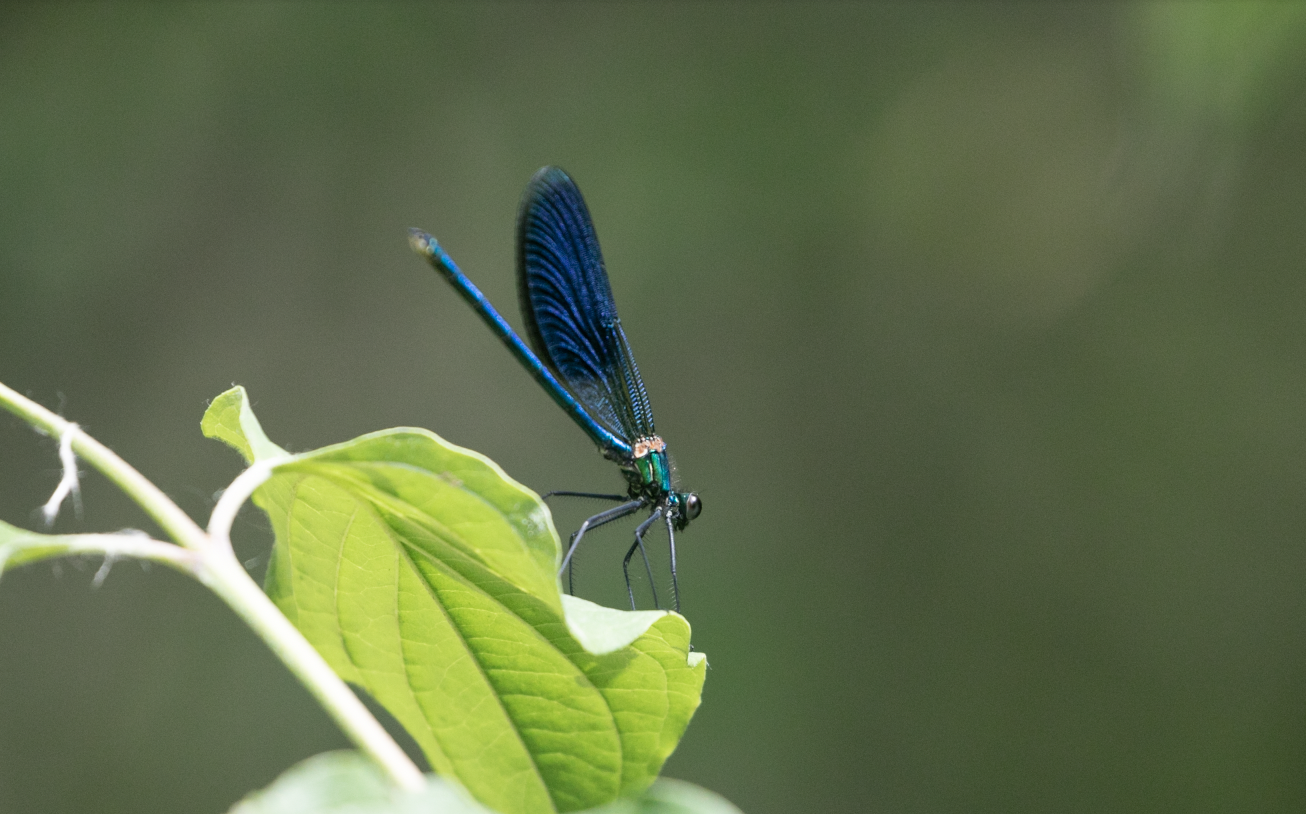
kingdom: Animalia
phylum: Arthropoda
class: Insecta
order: Odonata
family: Calopterygidae
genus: Calopteryx
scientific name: Calopteryx splendens
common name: Banded demoiselle
